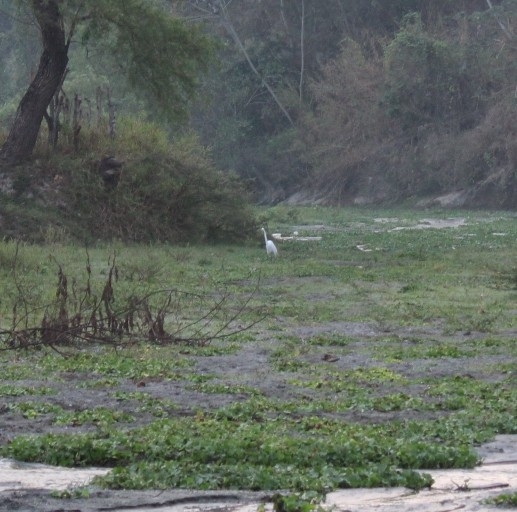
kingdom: Animalia
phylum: Chordata
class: Aves
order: Pelecaniformes
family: Ardeidae
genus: Ardea
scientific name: Ardea alba
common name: Great egret
